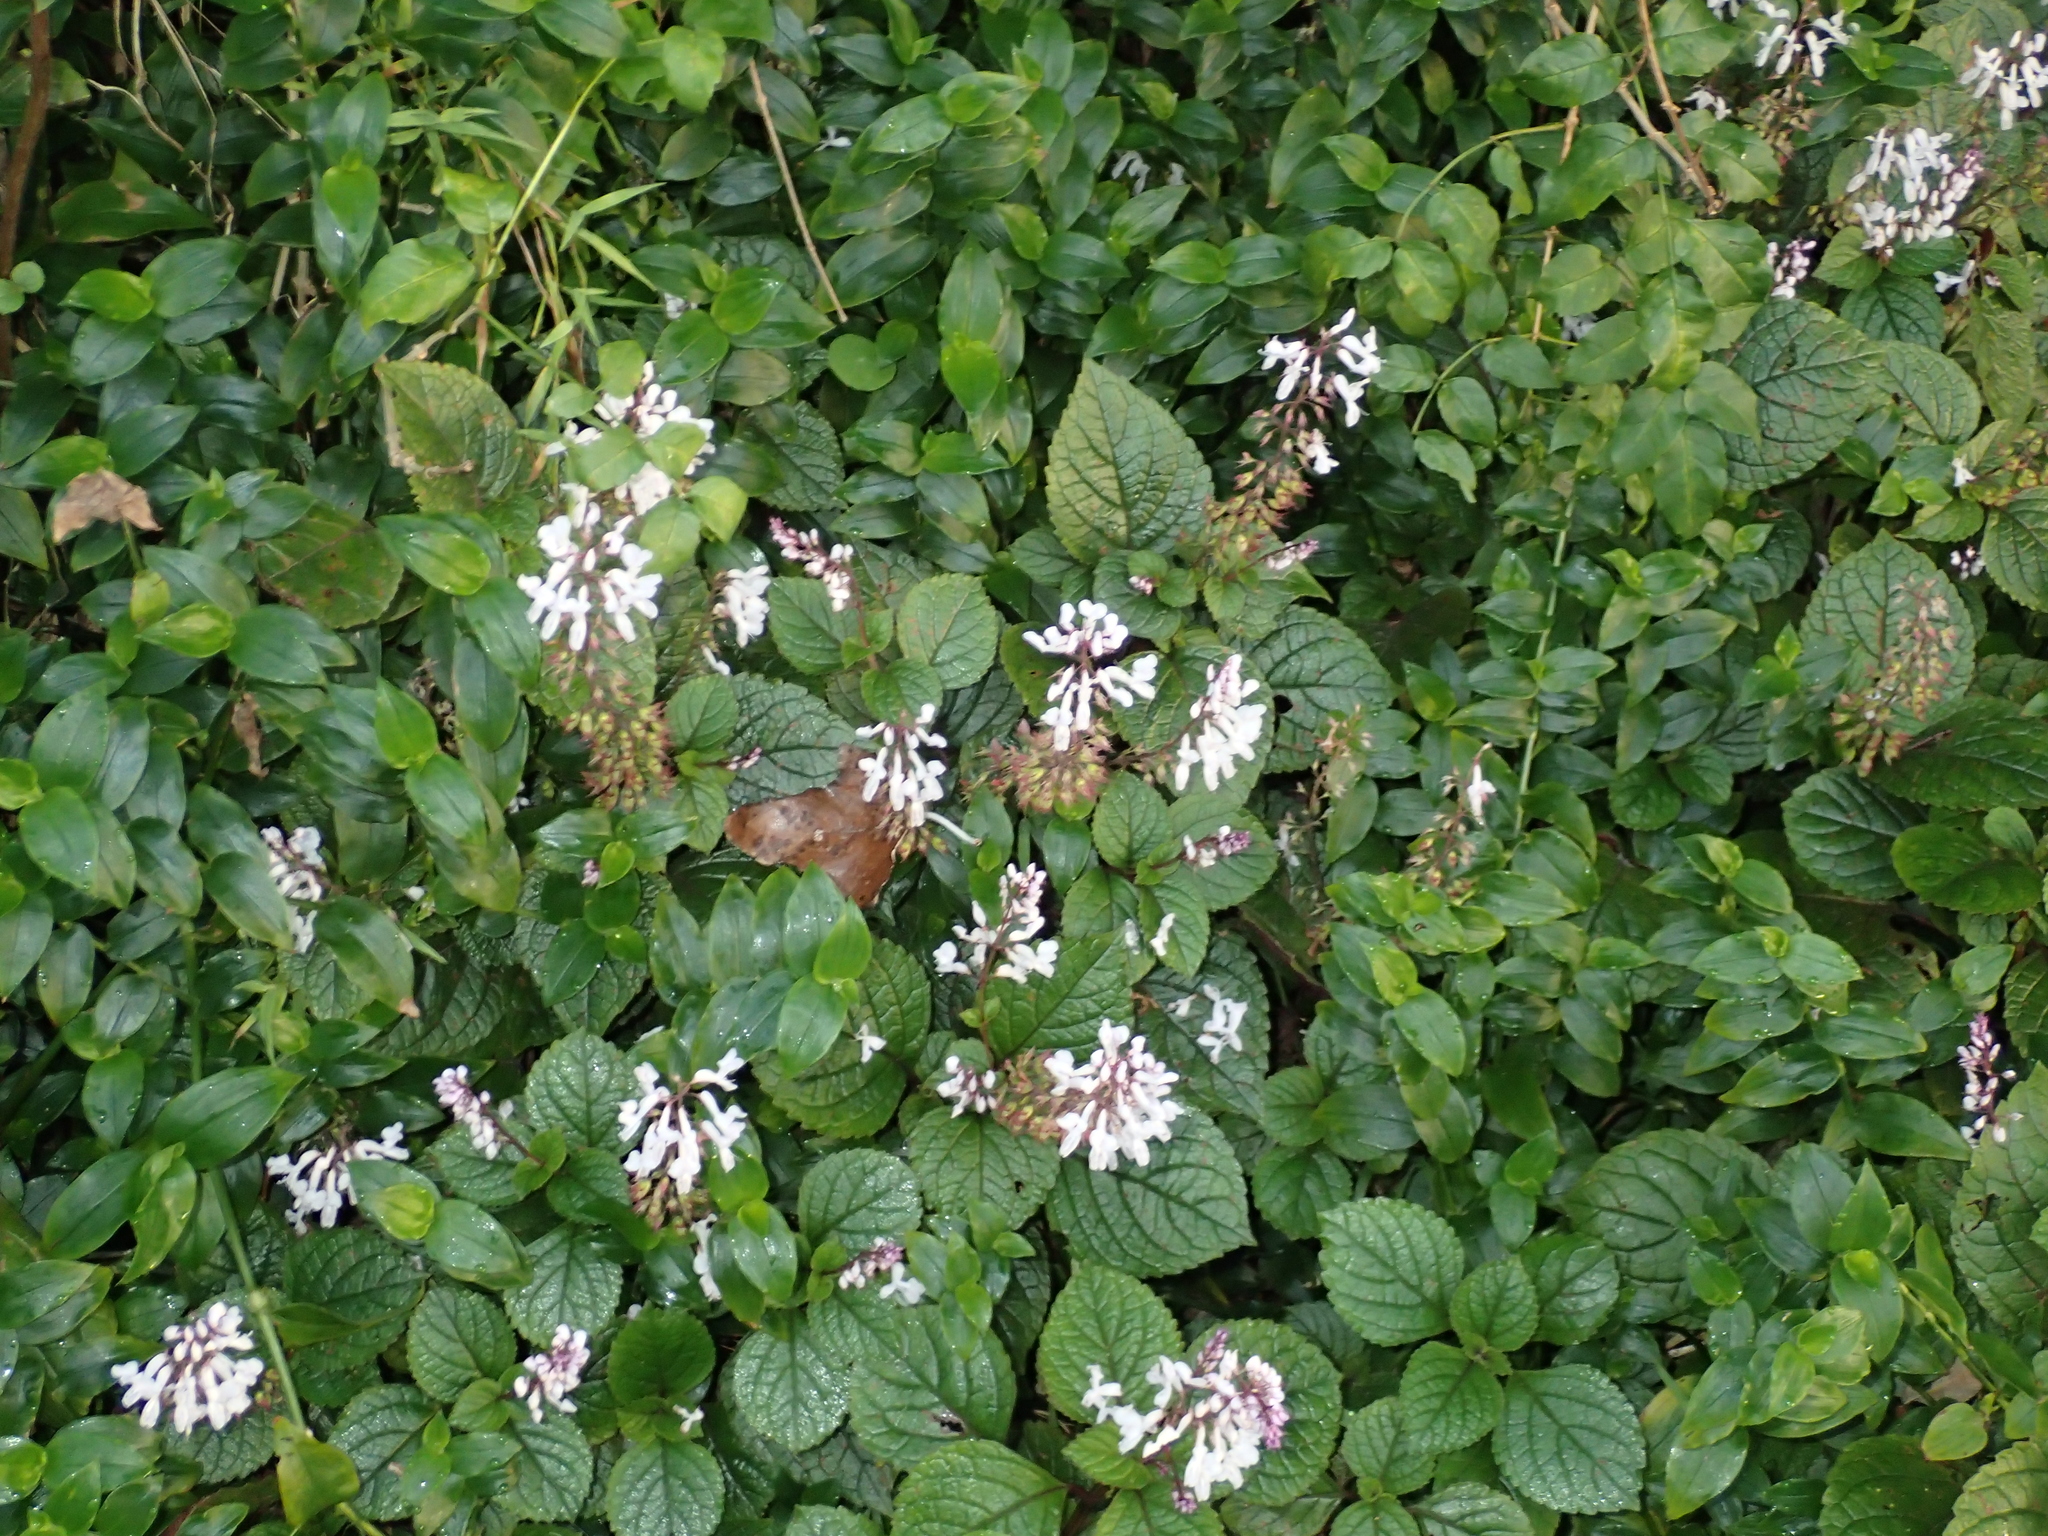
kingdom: Plantae
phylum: Tracheophyta
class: Magnoliopsida
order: Lamiales
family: Lamiaceae
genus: Plectranthus
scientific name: Plectranthus ciliatus
